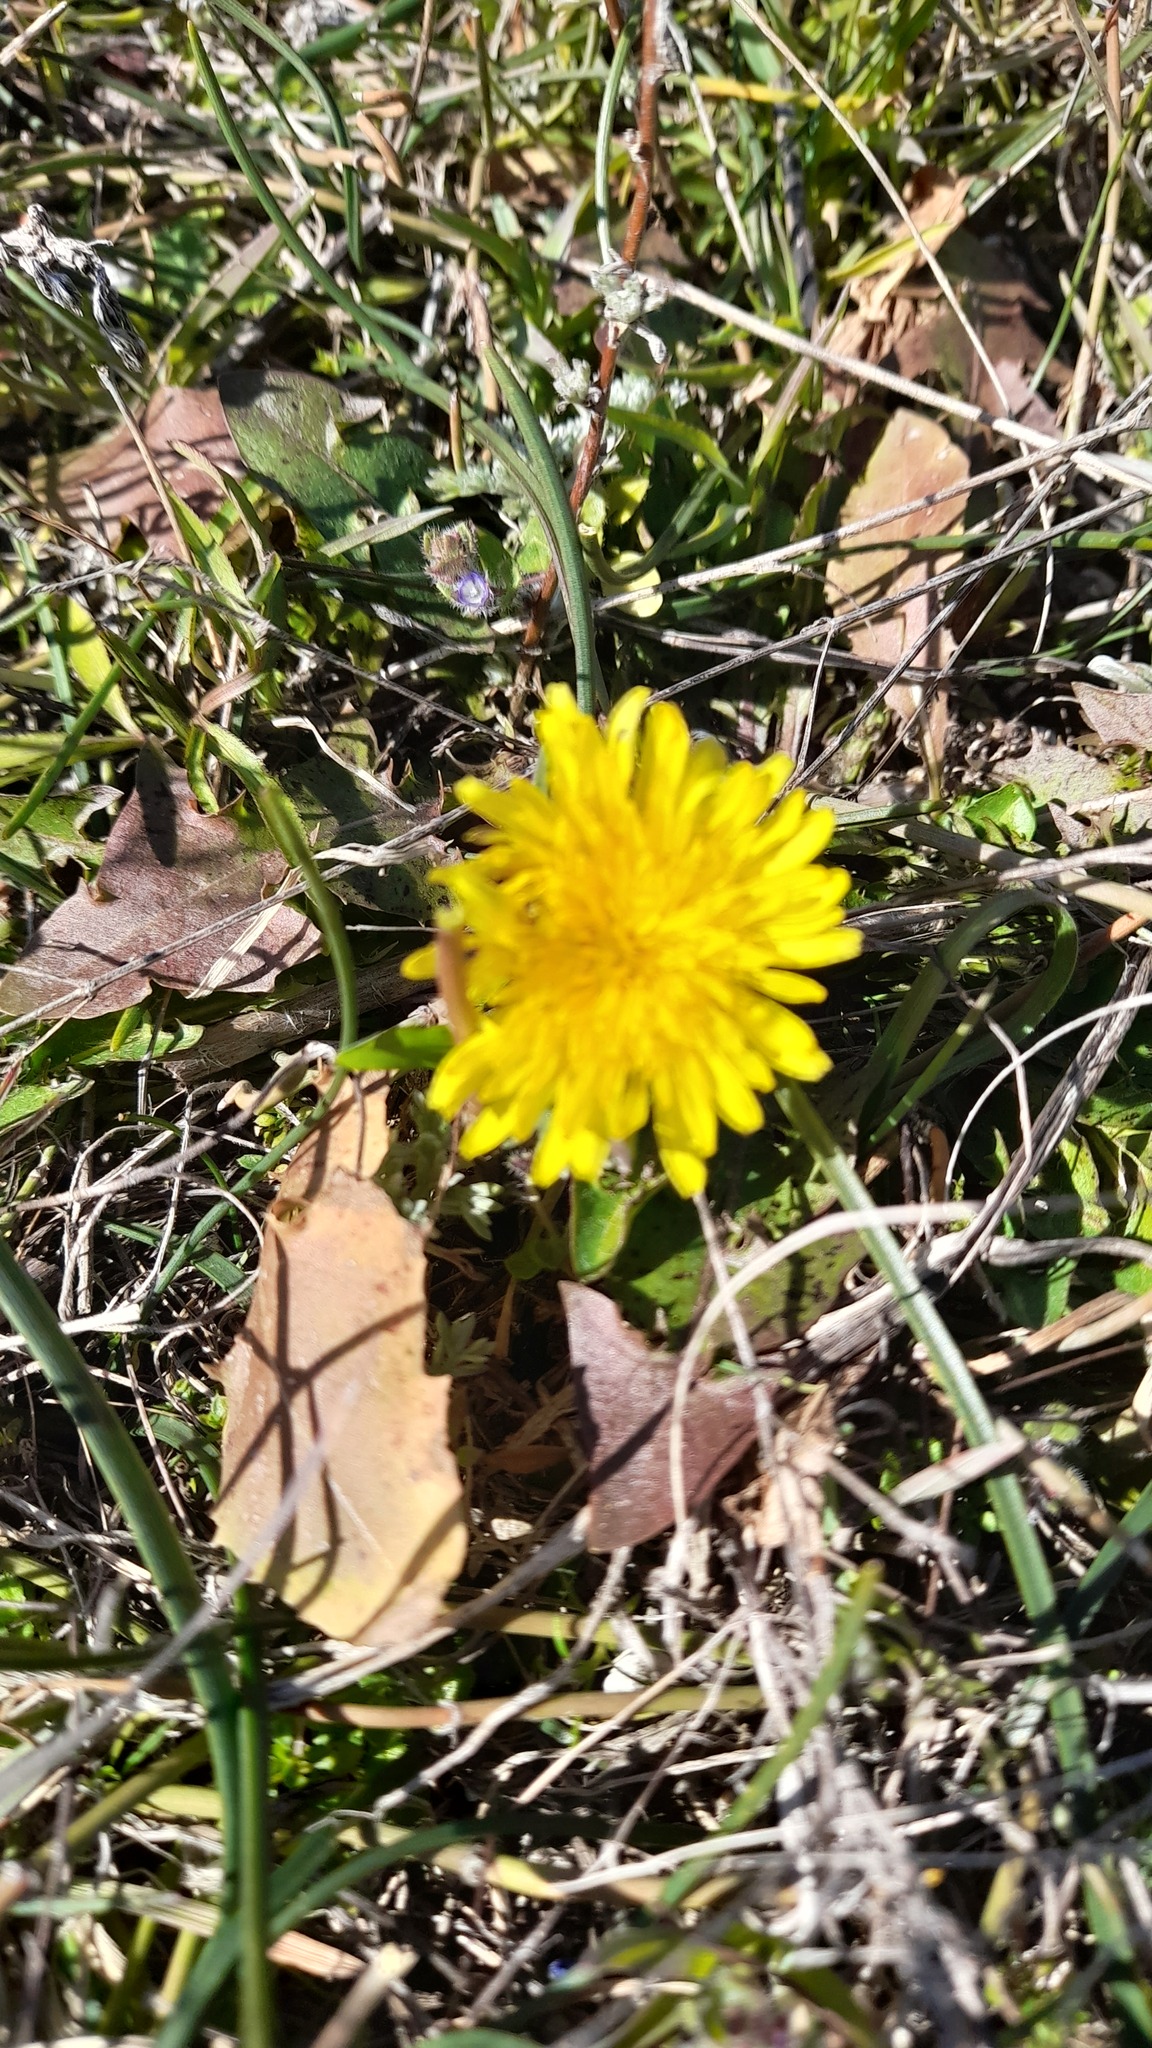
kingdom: Plantae
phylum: Tracheophyta
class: Magnoliopsida
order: Asterales
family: Asteraceae
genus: Taraxacum
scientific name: Taraxacum officinale
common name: Common dandelion
